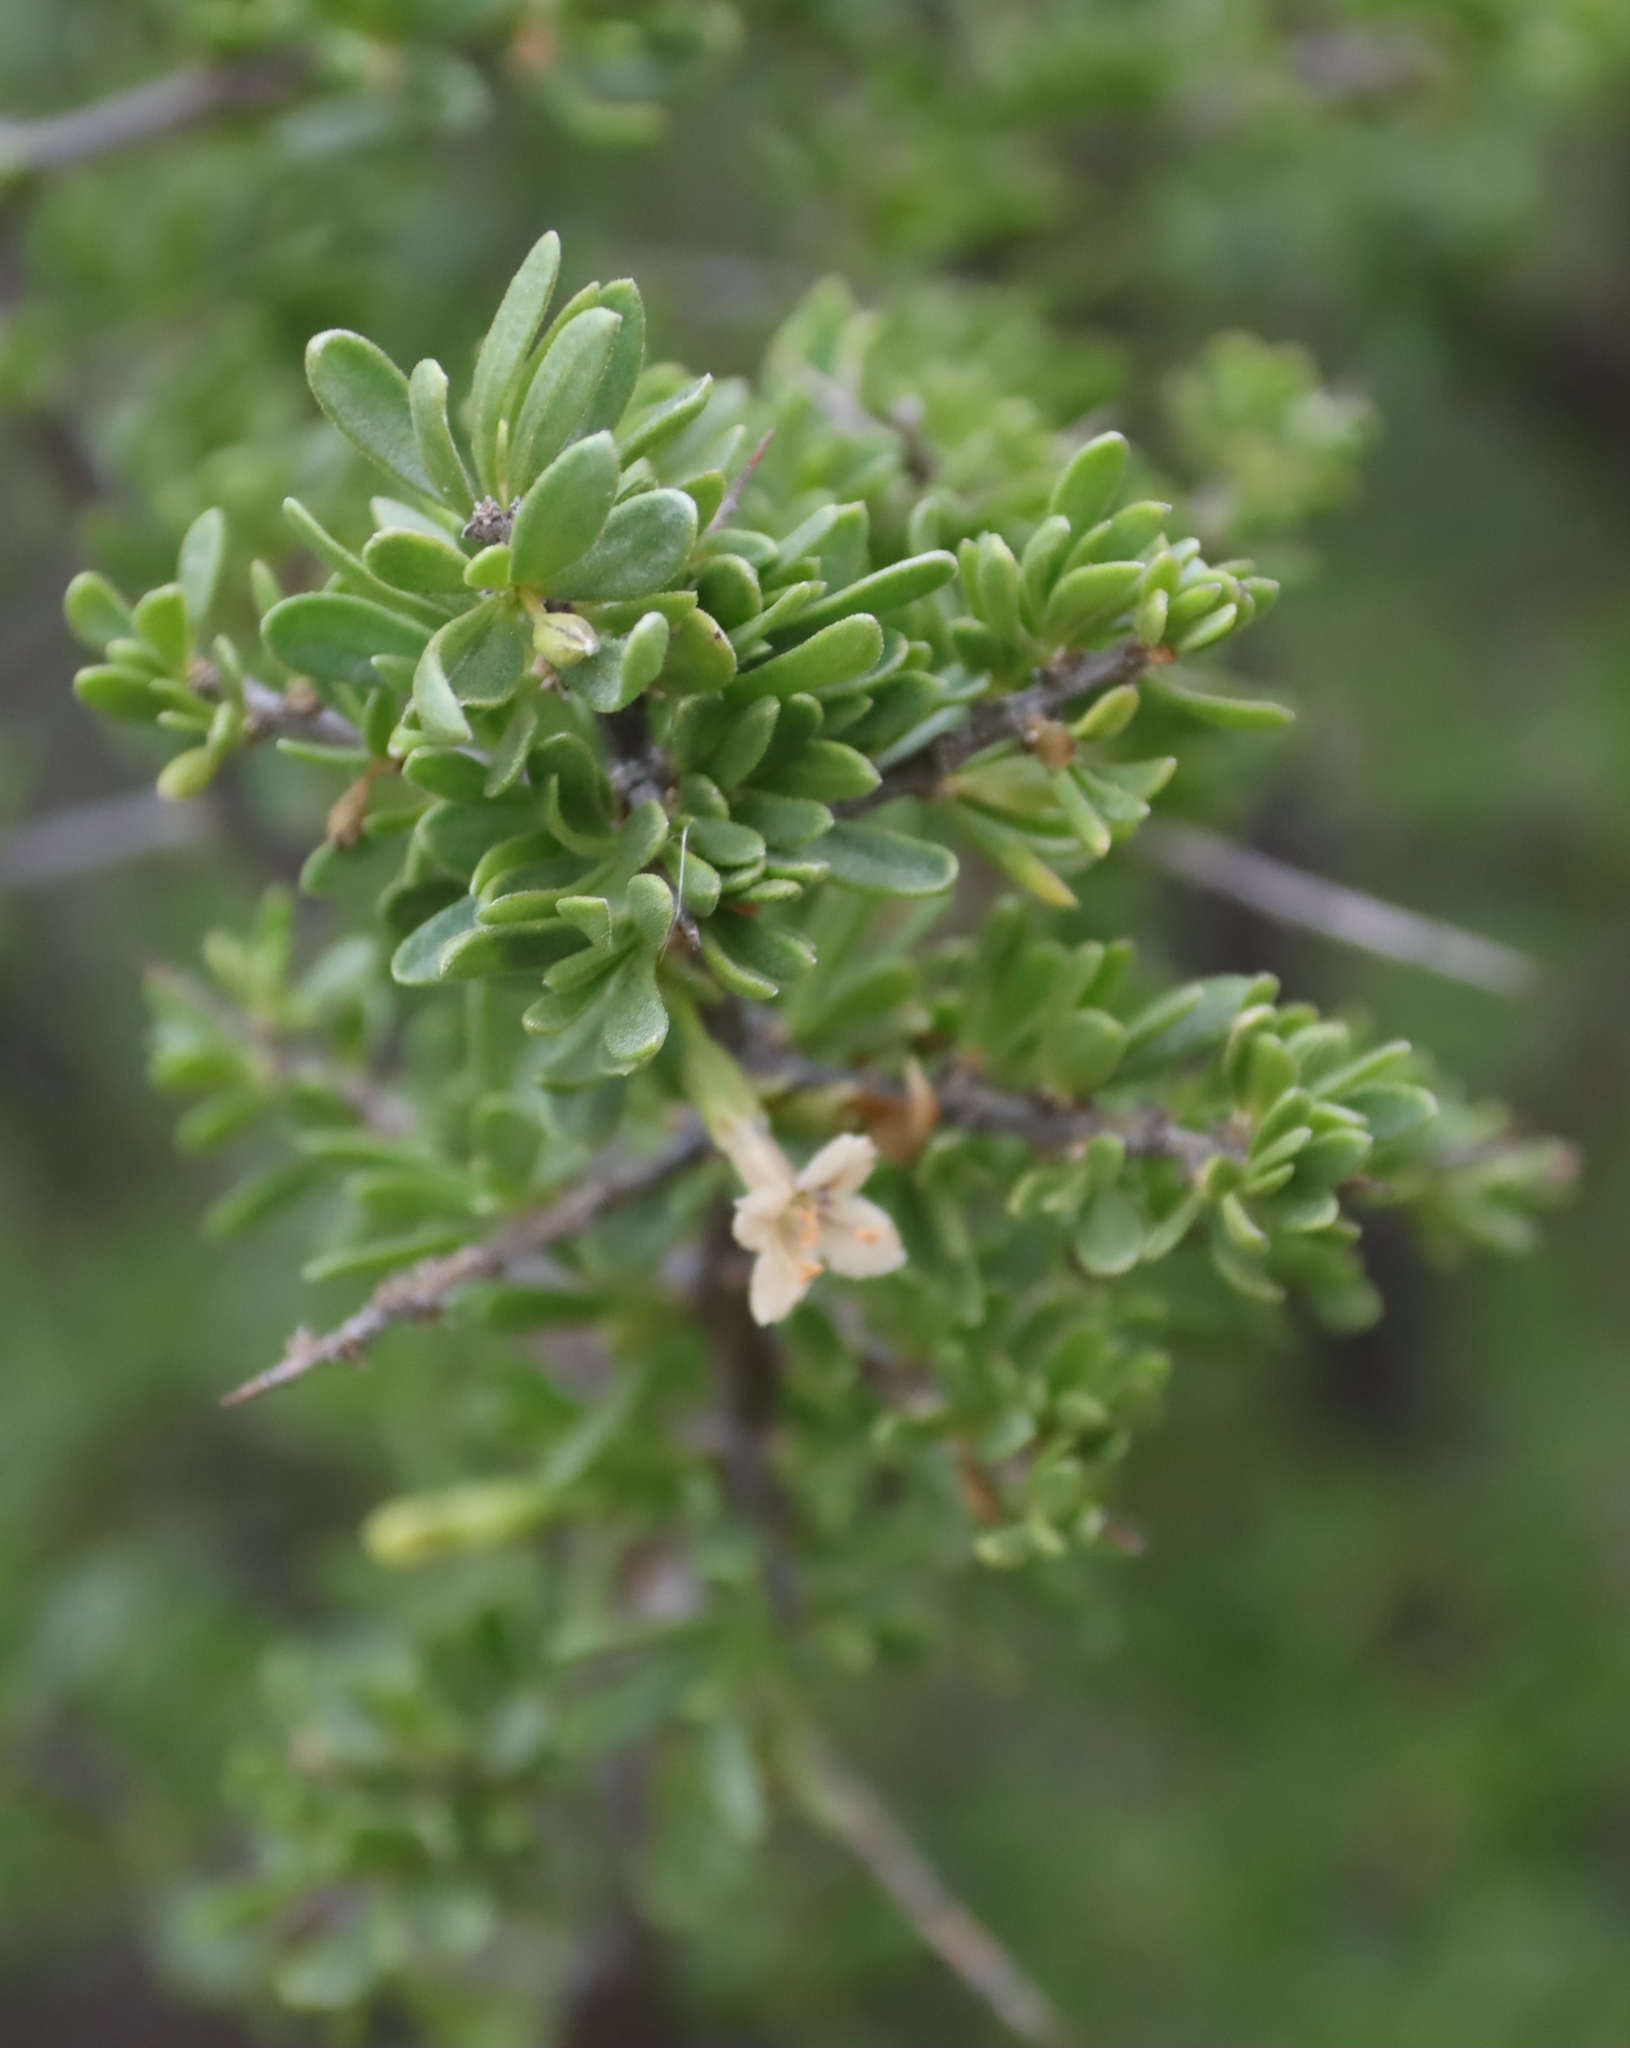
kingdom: Plantae
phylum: Tracheophyta
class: Magnoliopsida
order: Solanales
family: Solanaceae
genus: Lycium
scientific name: Lycium horridum
